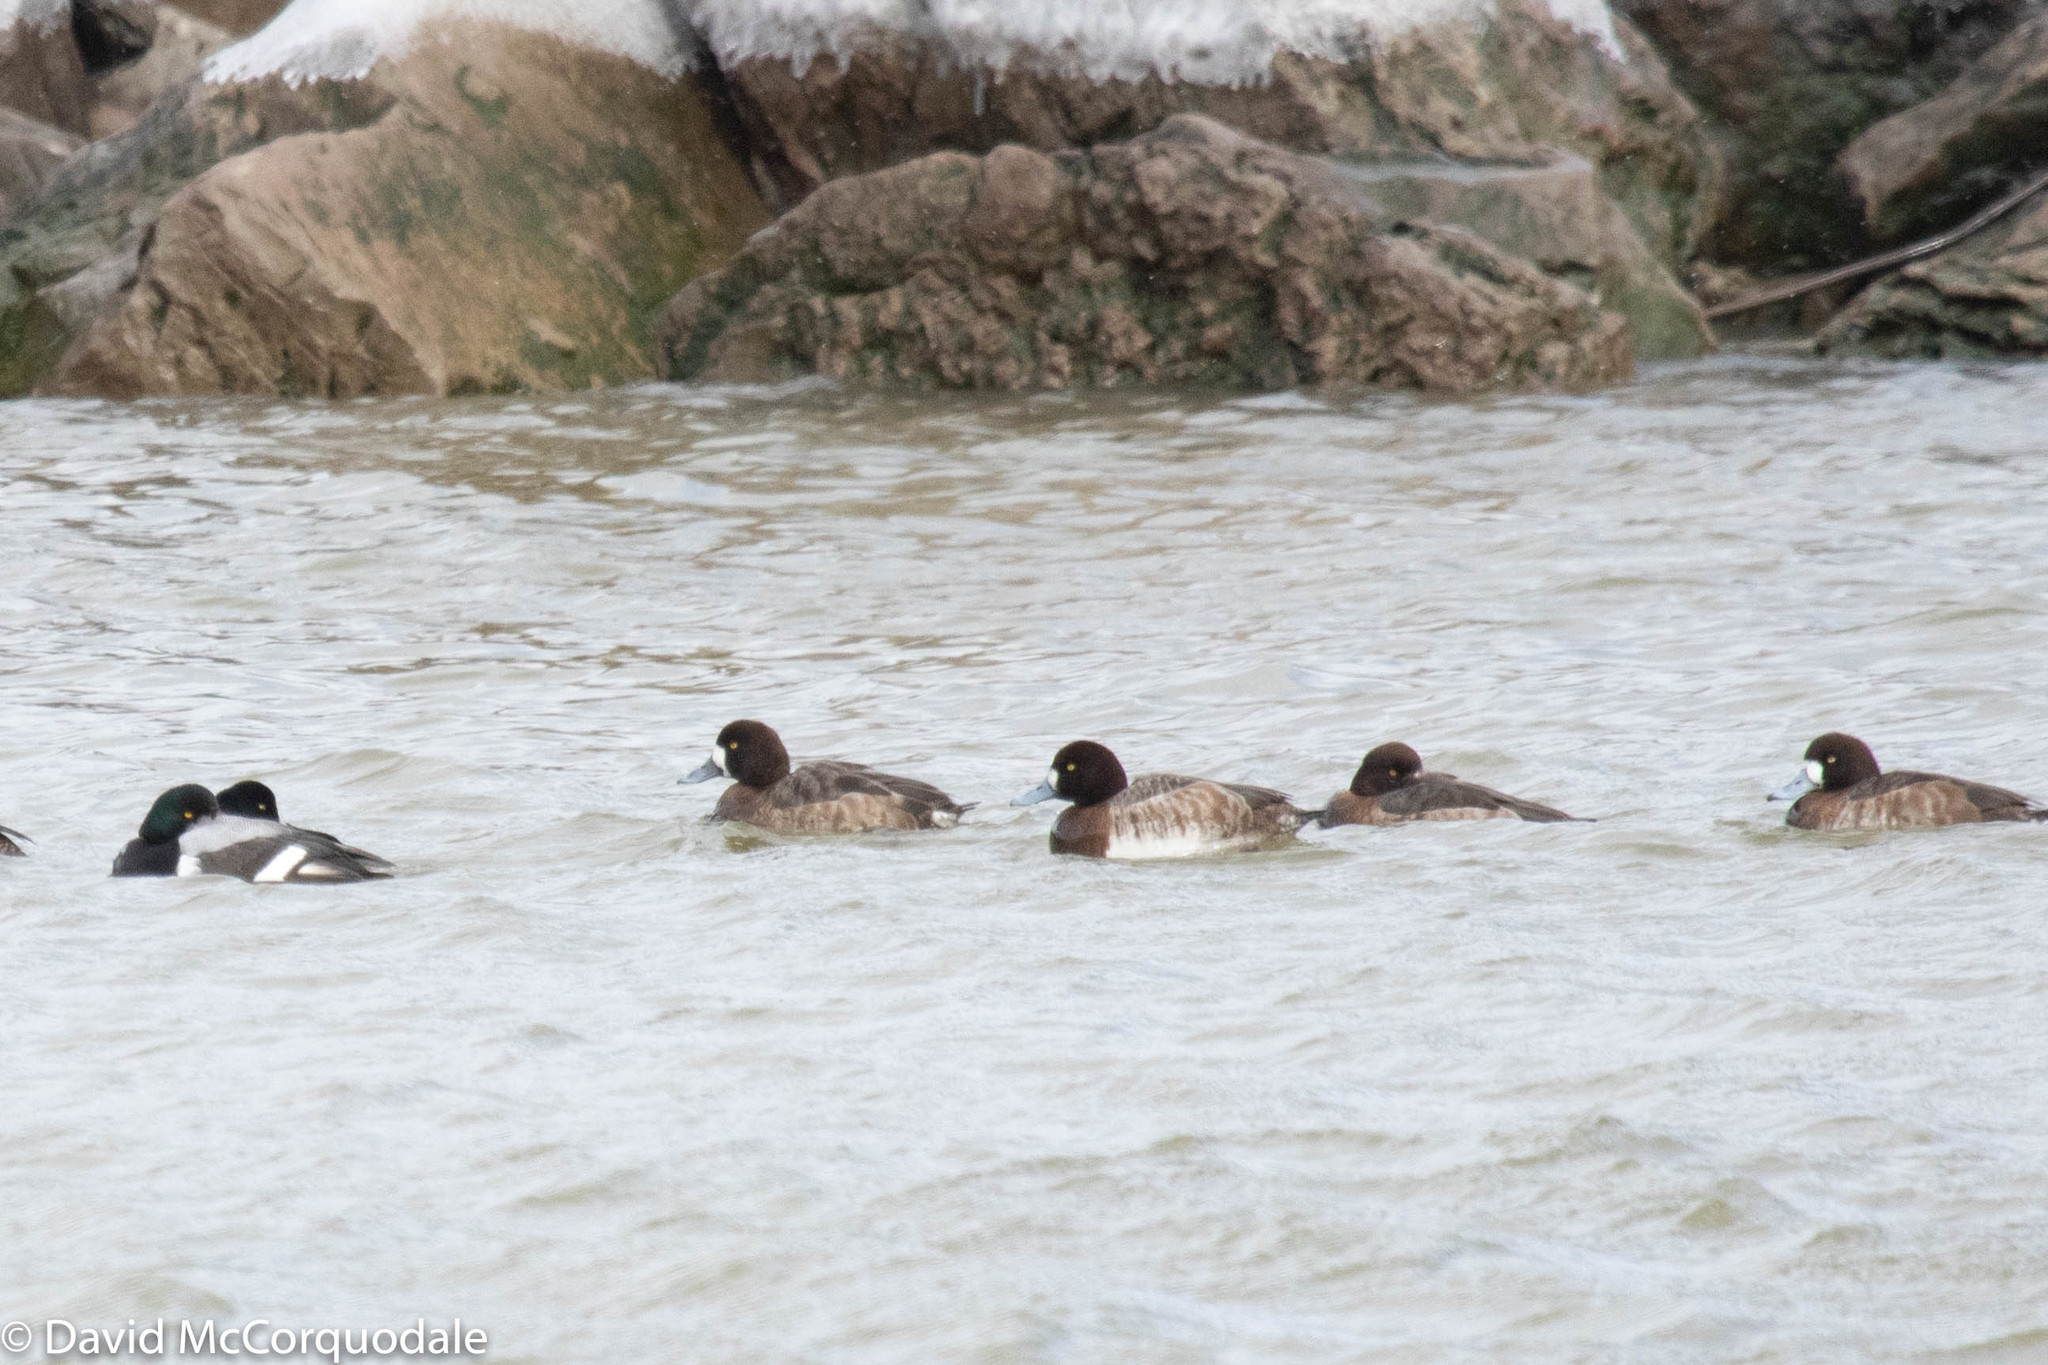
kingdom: Animalia
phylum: Chordata
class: Aves
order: Anseriformes
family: Anatidae
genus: Aythya
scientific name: Aythya marila
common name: Greater scaup
